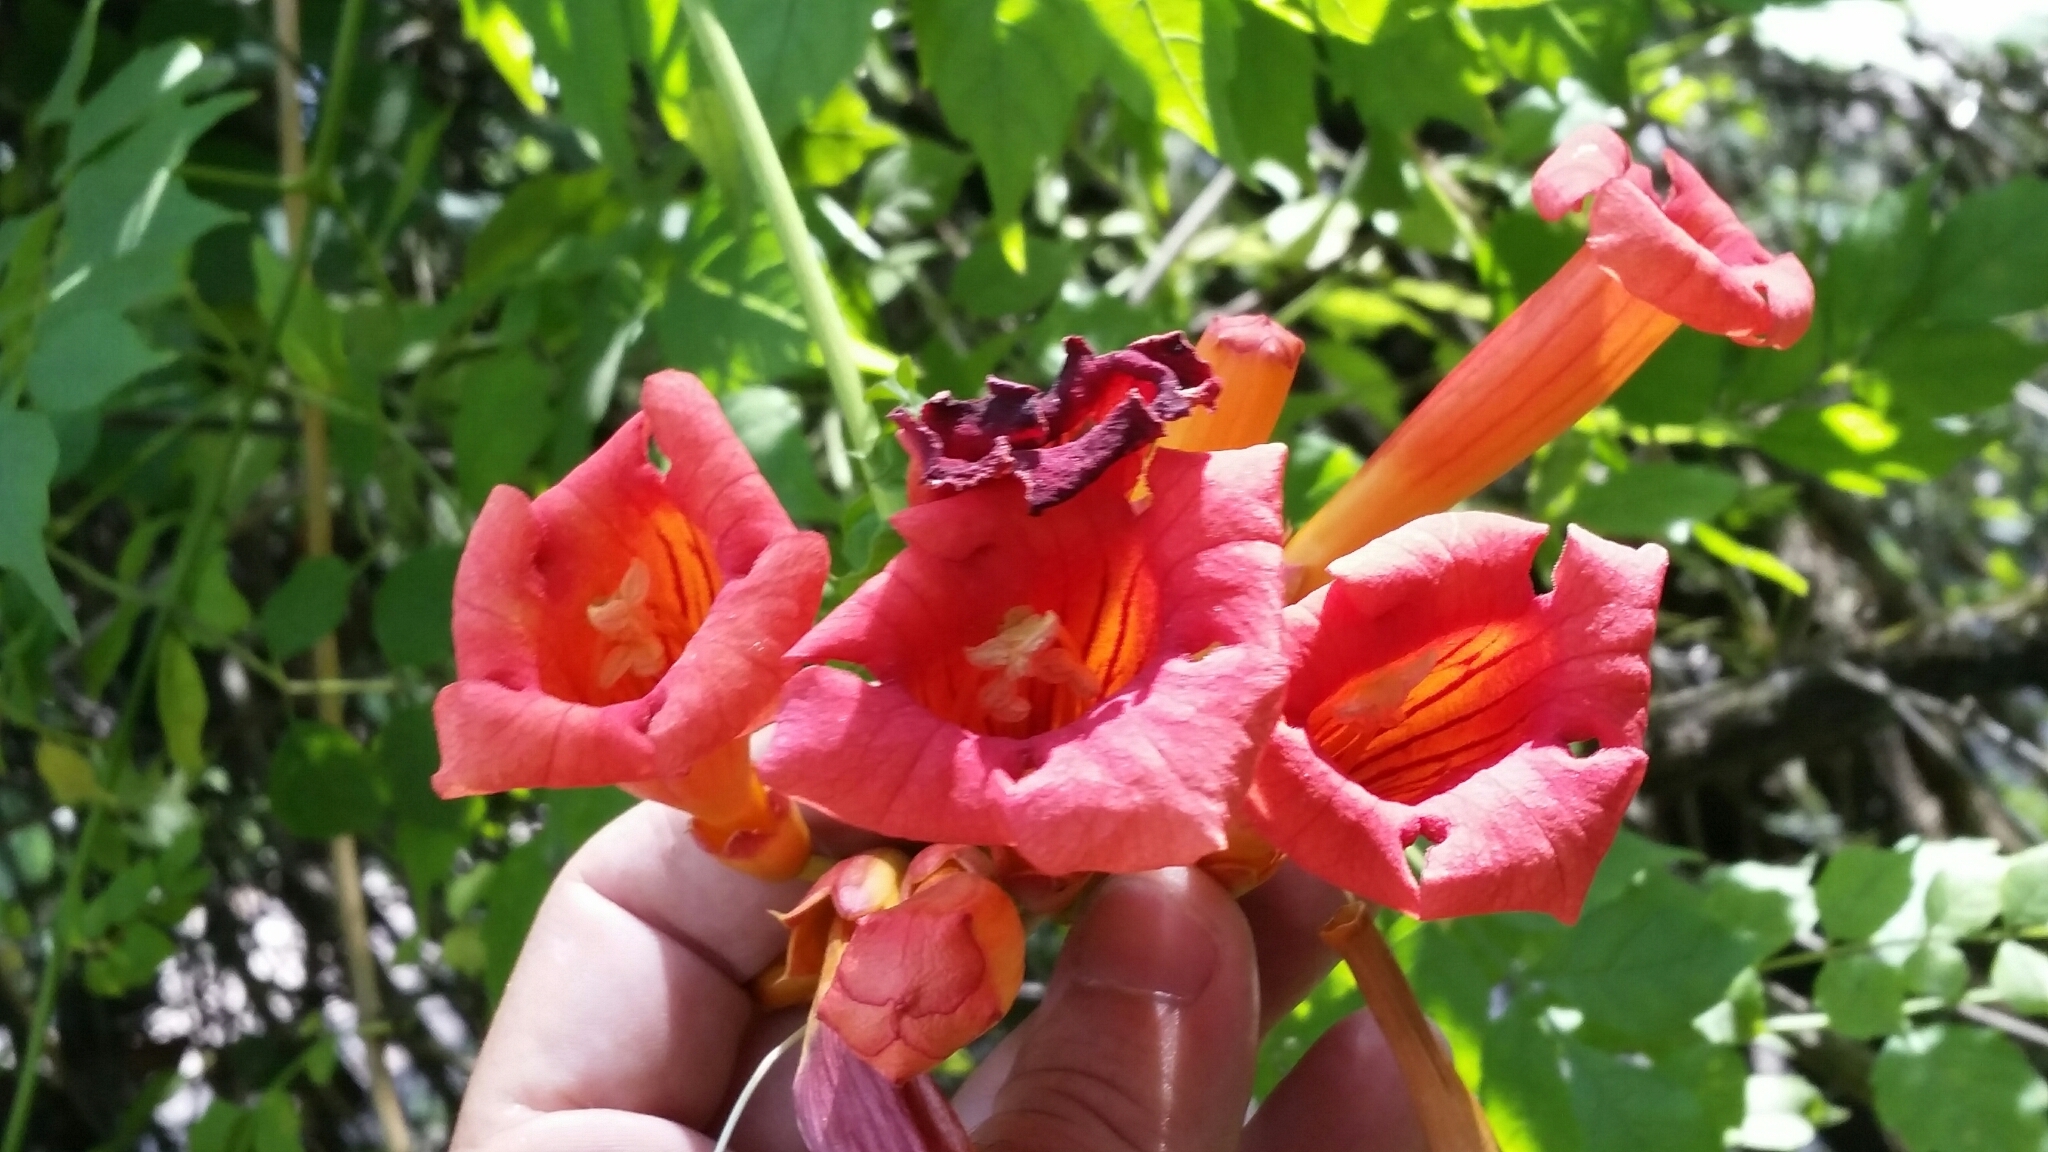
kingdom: Plantae
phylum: Tracheophyta
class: Magnoliopsida
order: Lamiales
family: Bignoniaceae
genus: Campsis
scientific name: Campsis radicans
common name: Trumpet-creeper
